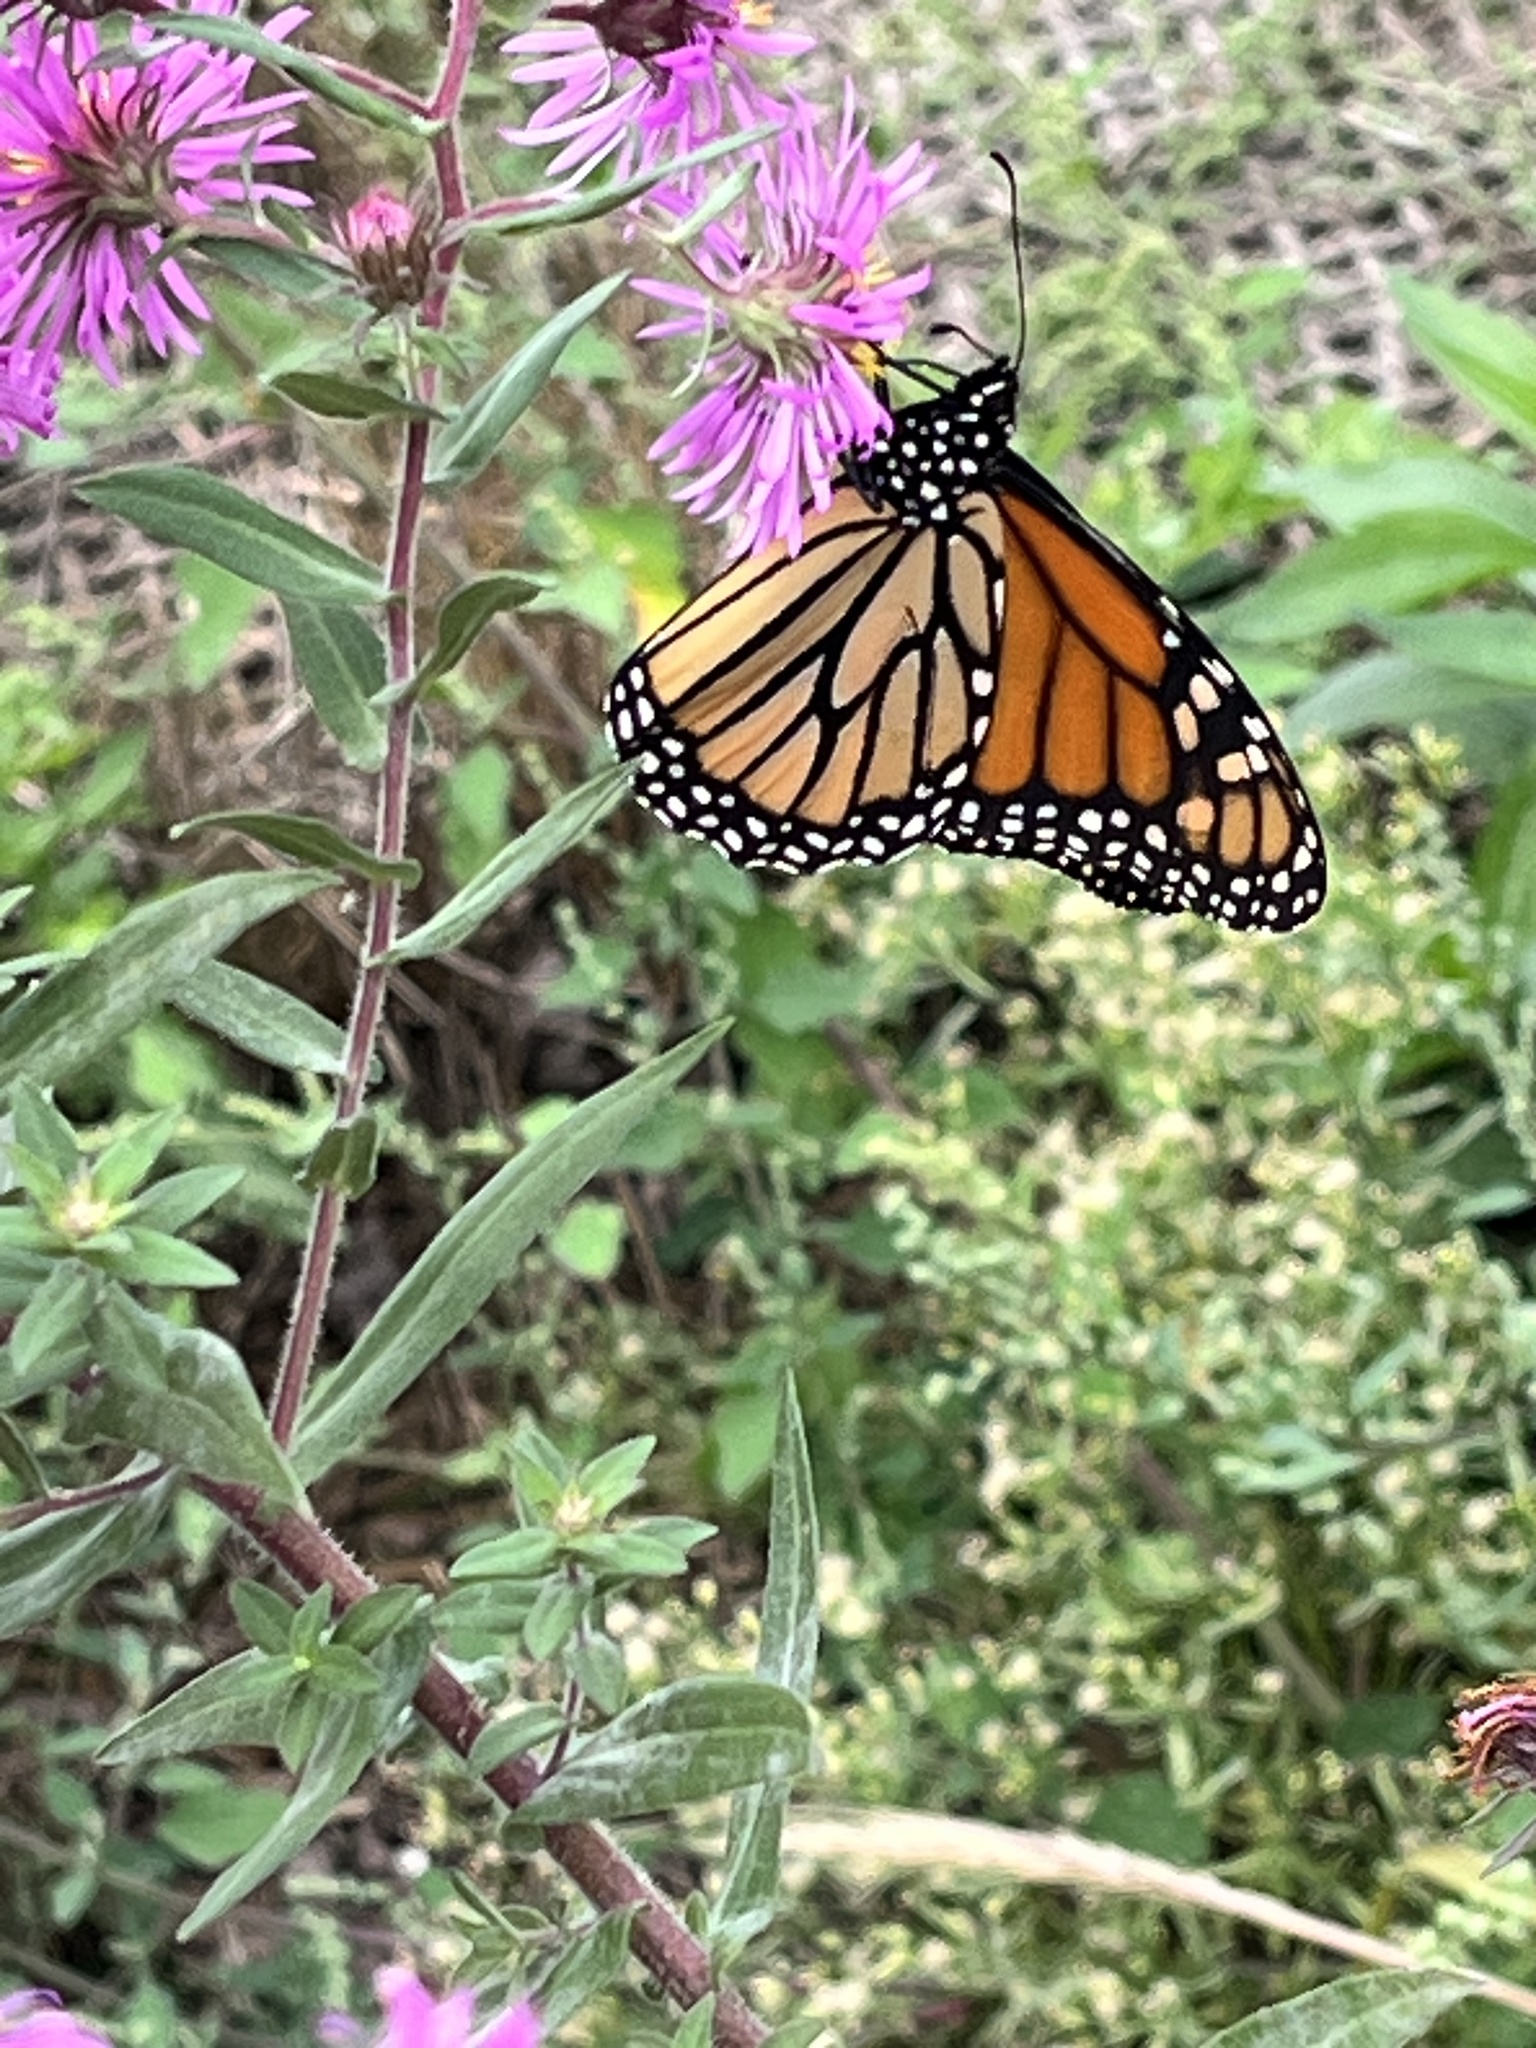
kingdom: Animalia
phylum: Arthropoda
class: Insecta
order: Lepidoptera
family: Nymphalidae
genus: Danaus
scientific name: Danaus plexippus
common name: Monarch
